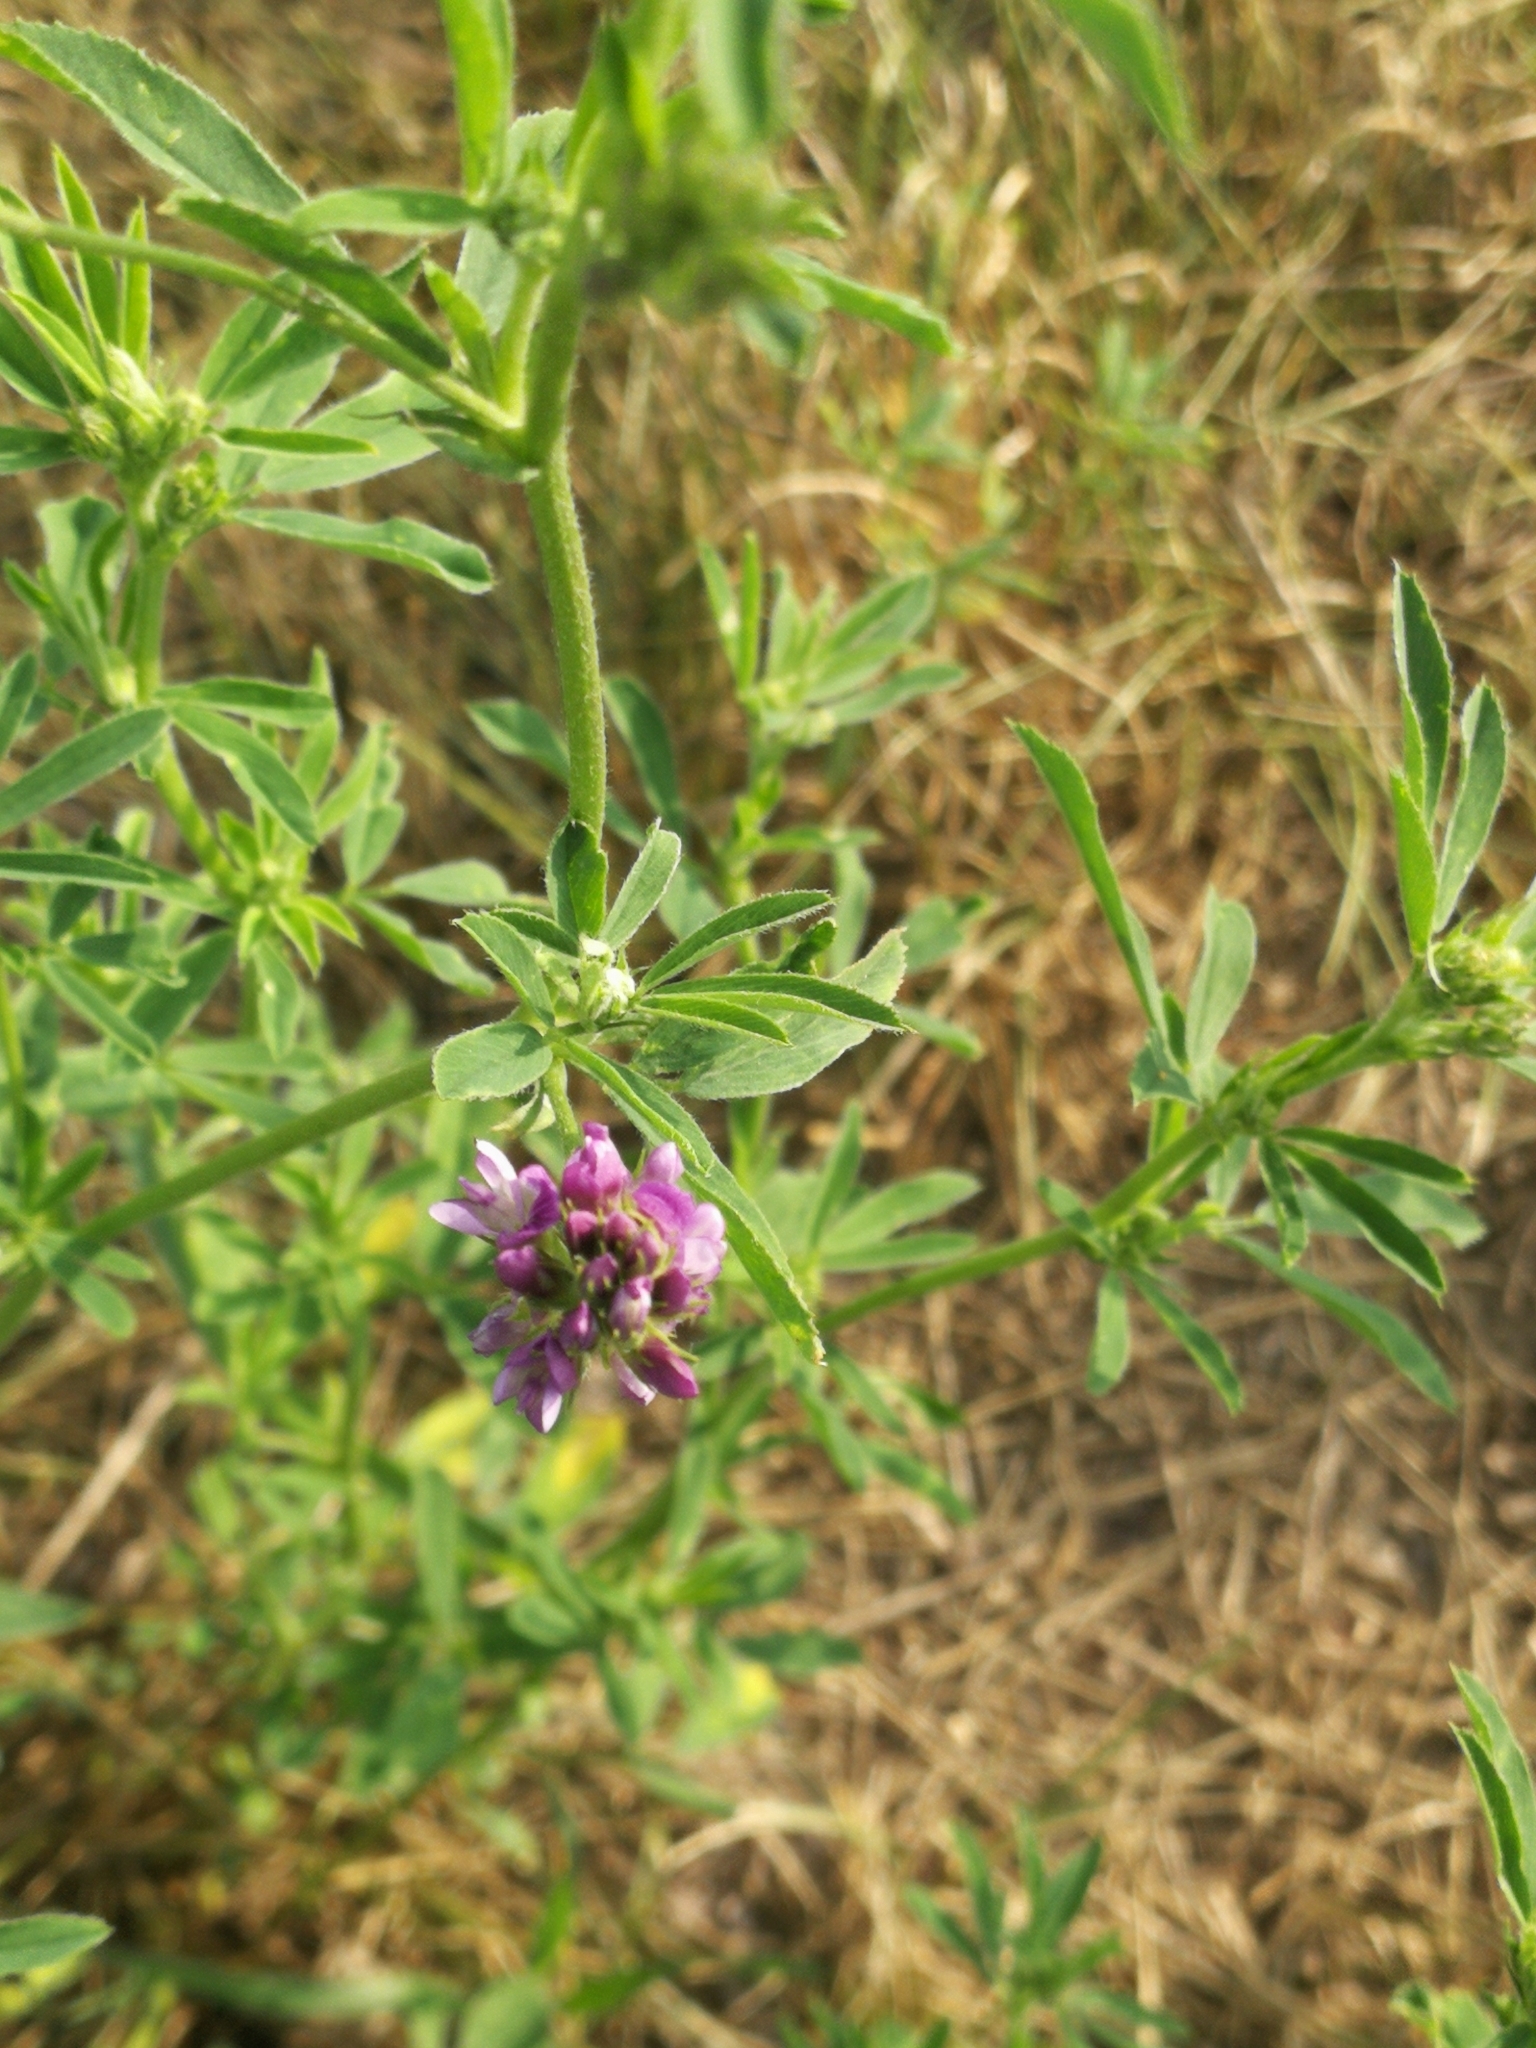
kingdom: Plantae
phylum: Tracheophyta
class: Magnoliopsida
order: Fabales
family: Fabaceae
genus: Medicago
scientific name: Medicago sativa
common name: Alfalfa
